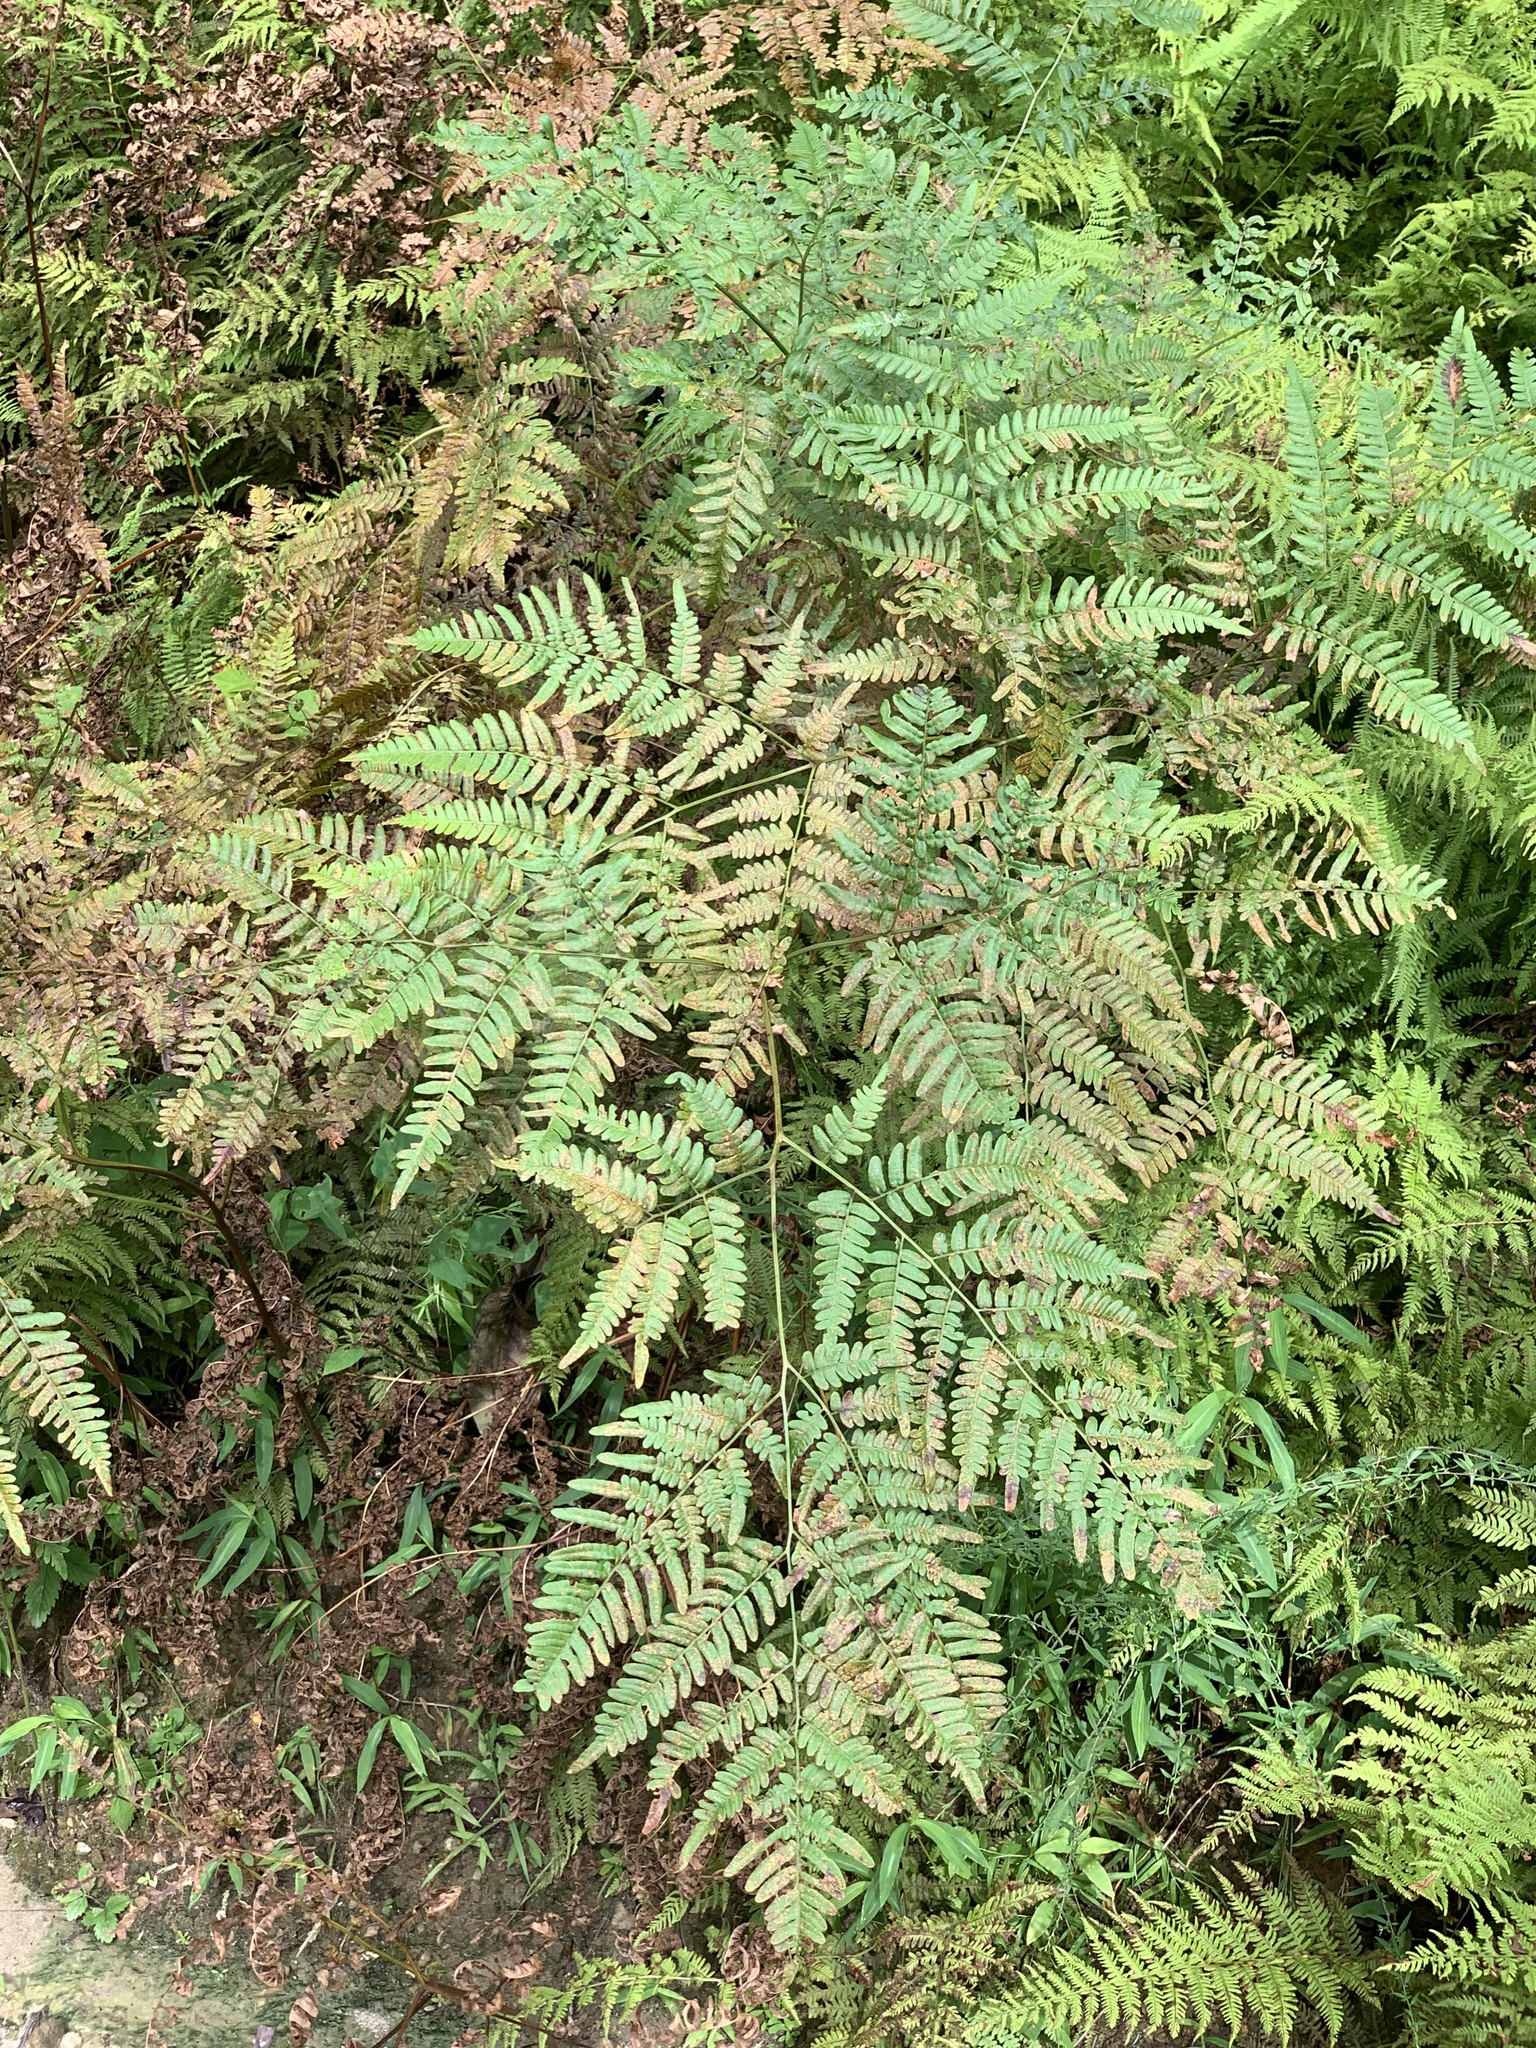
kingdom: Plantae
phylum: Tracheophyta
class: Polypodiopsida
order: Polypodiales
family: Dennstaedtiaceae
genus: Pteridium
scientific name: Pteridium aquilinum
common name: Bracken
